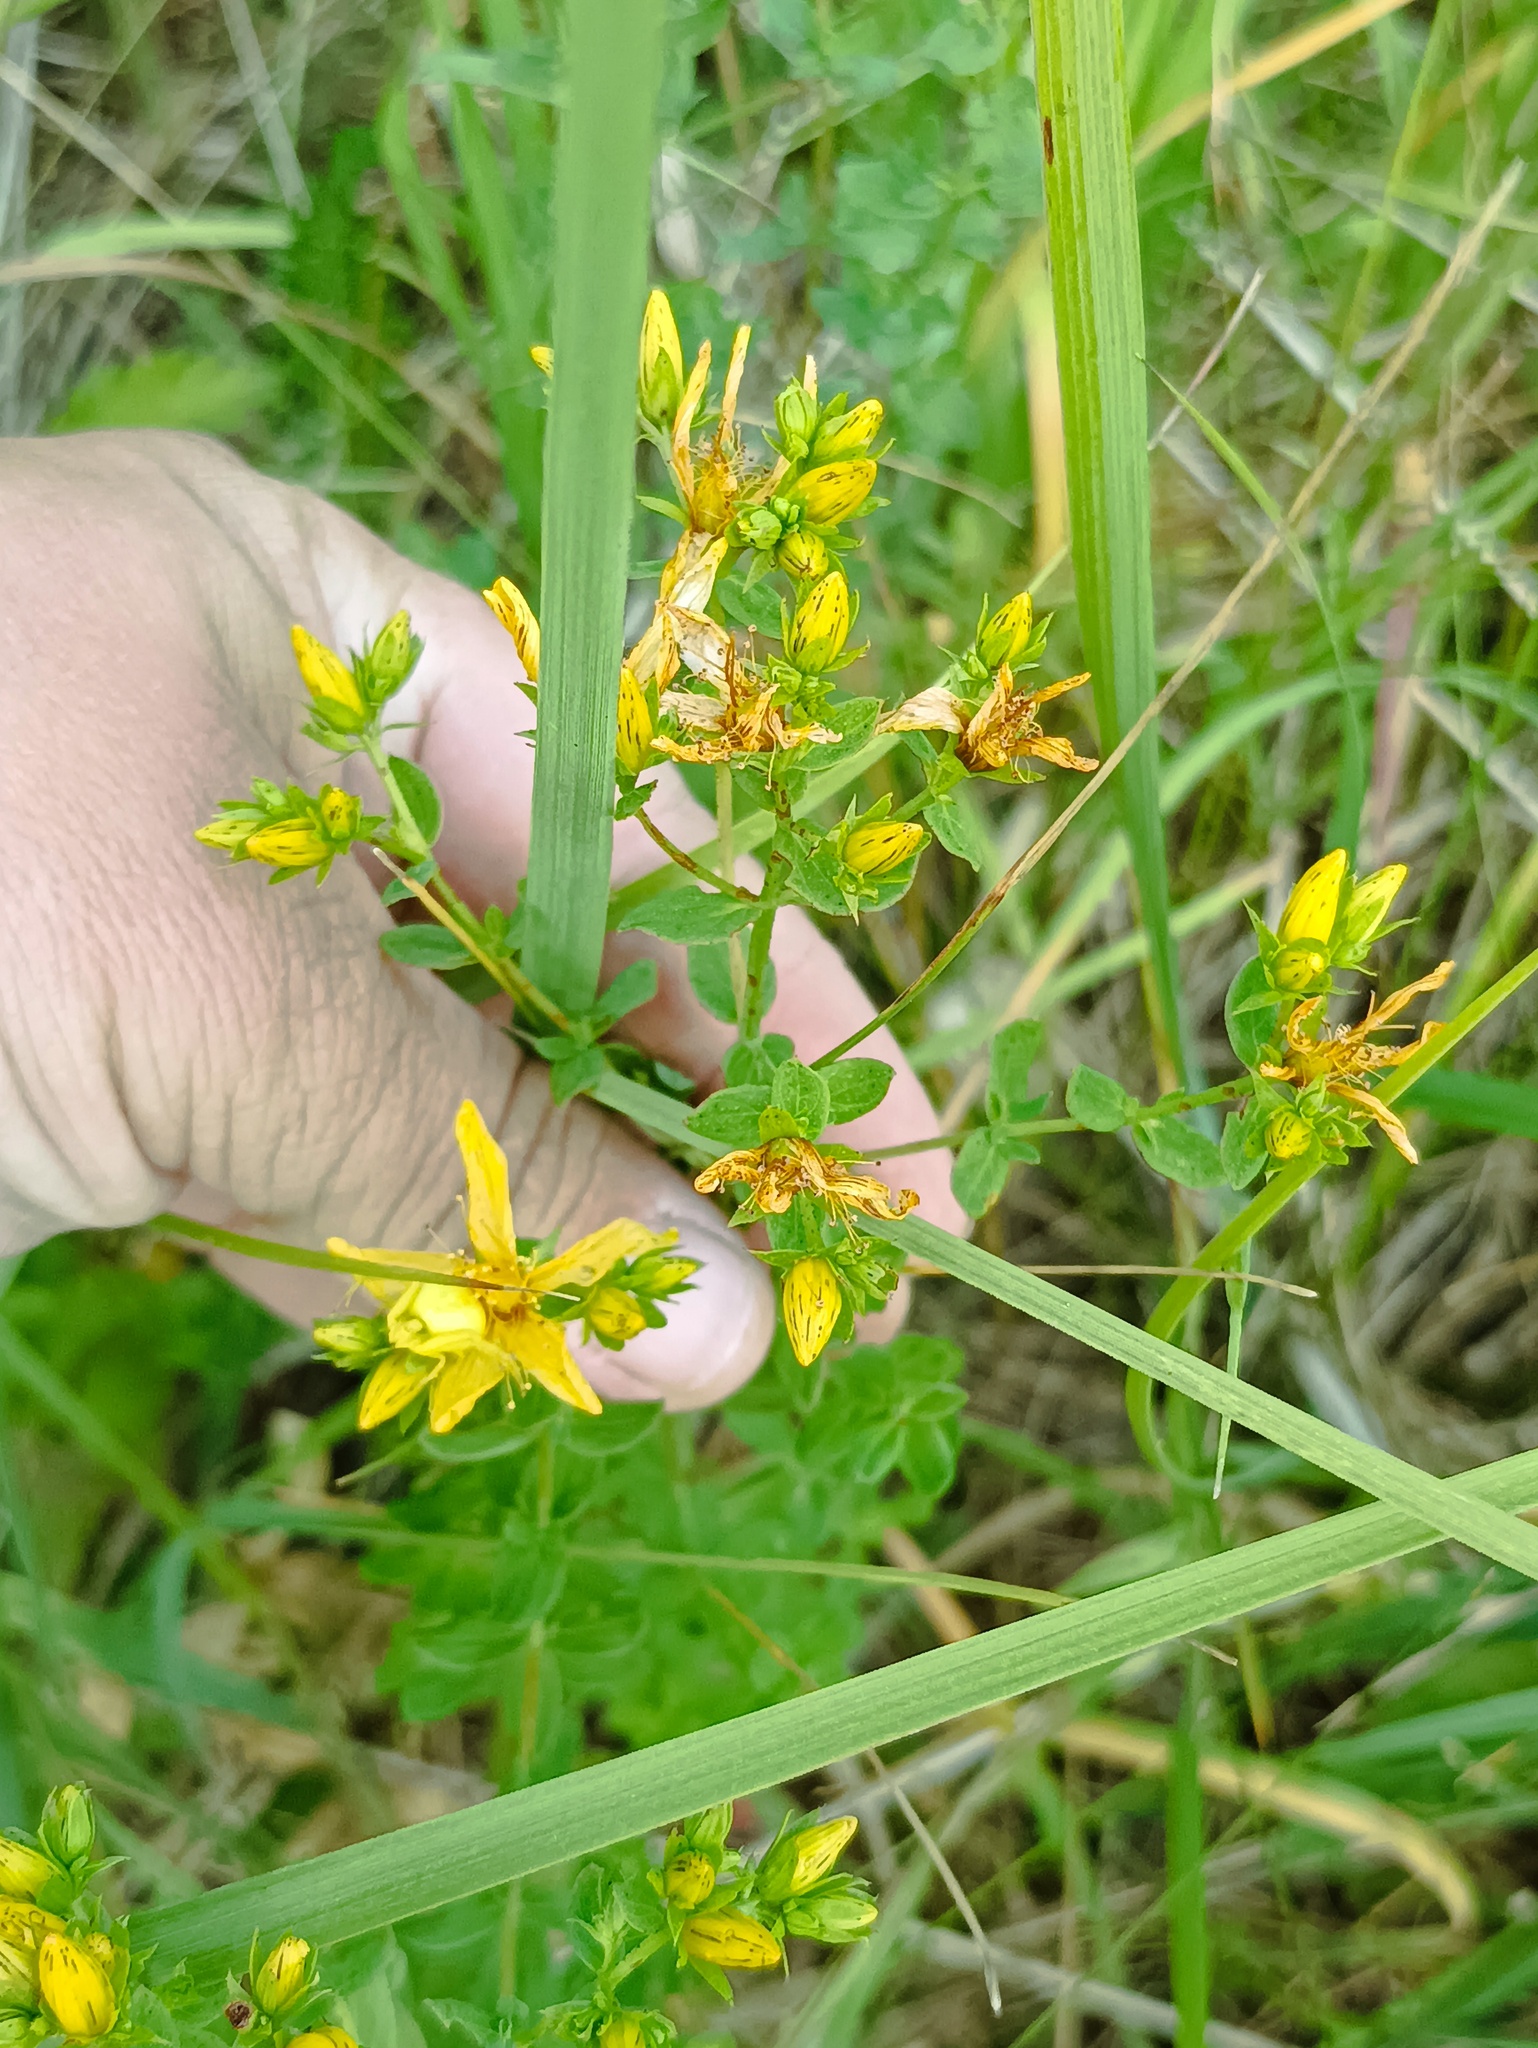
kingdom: Plantae
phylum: Tracheophyta
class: Magnoliopsida
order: Malpighiales
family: Hypericaceae
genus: Hypericum
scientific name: Hypericum perforatum
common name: Common st. johnswort
